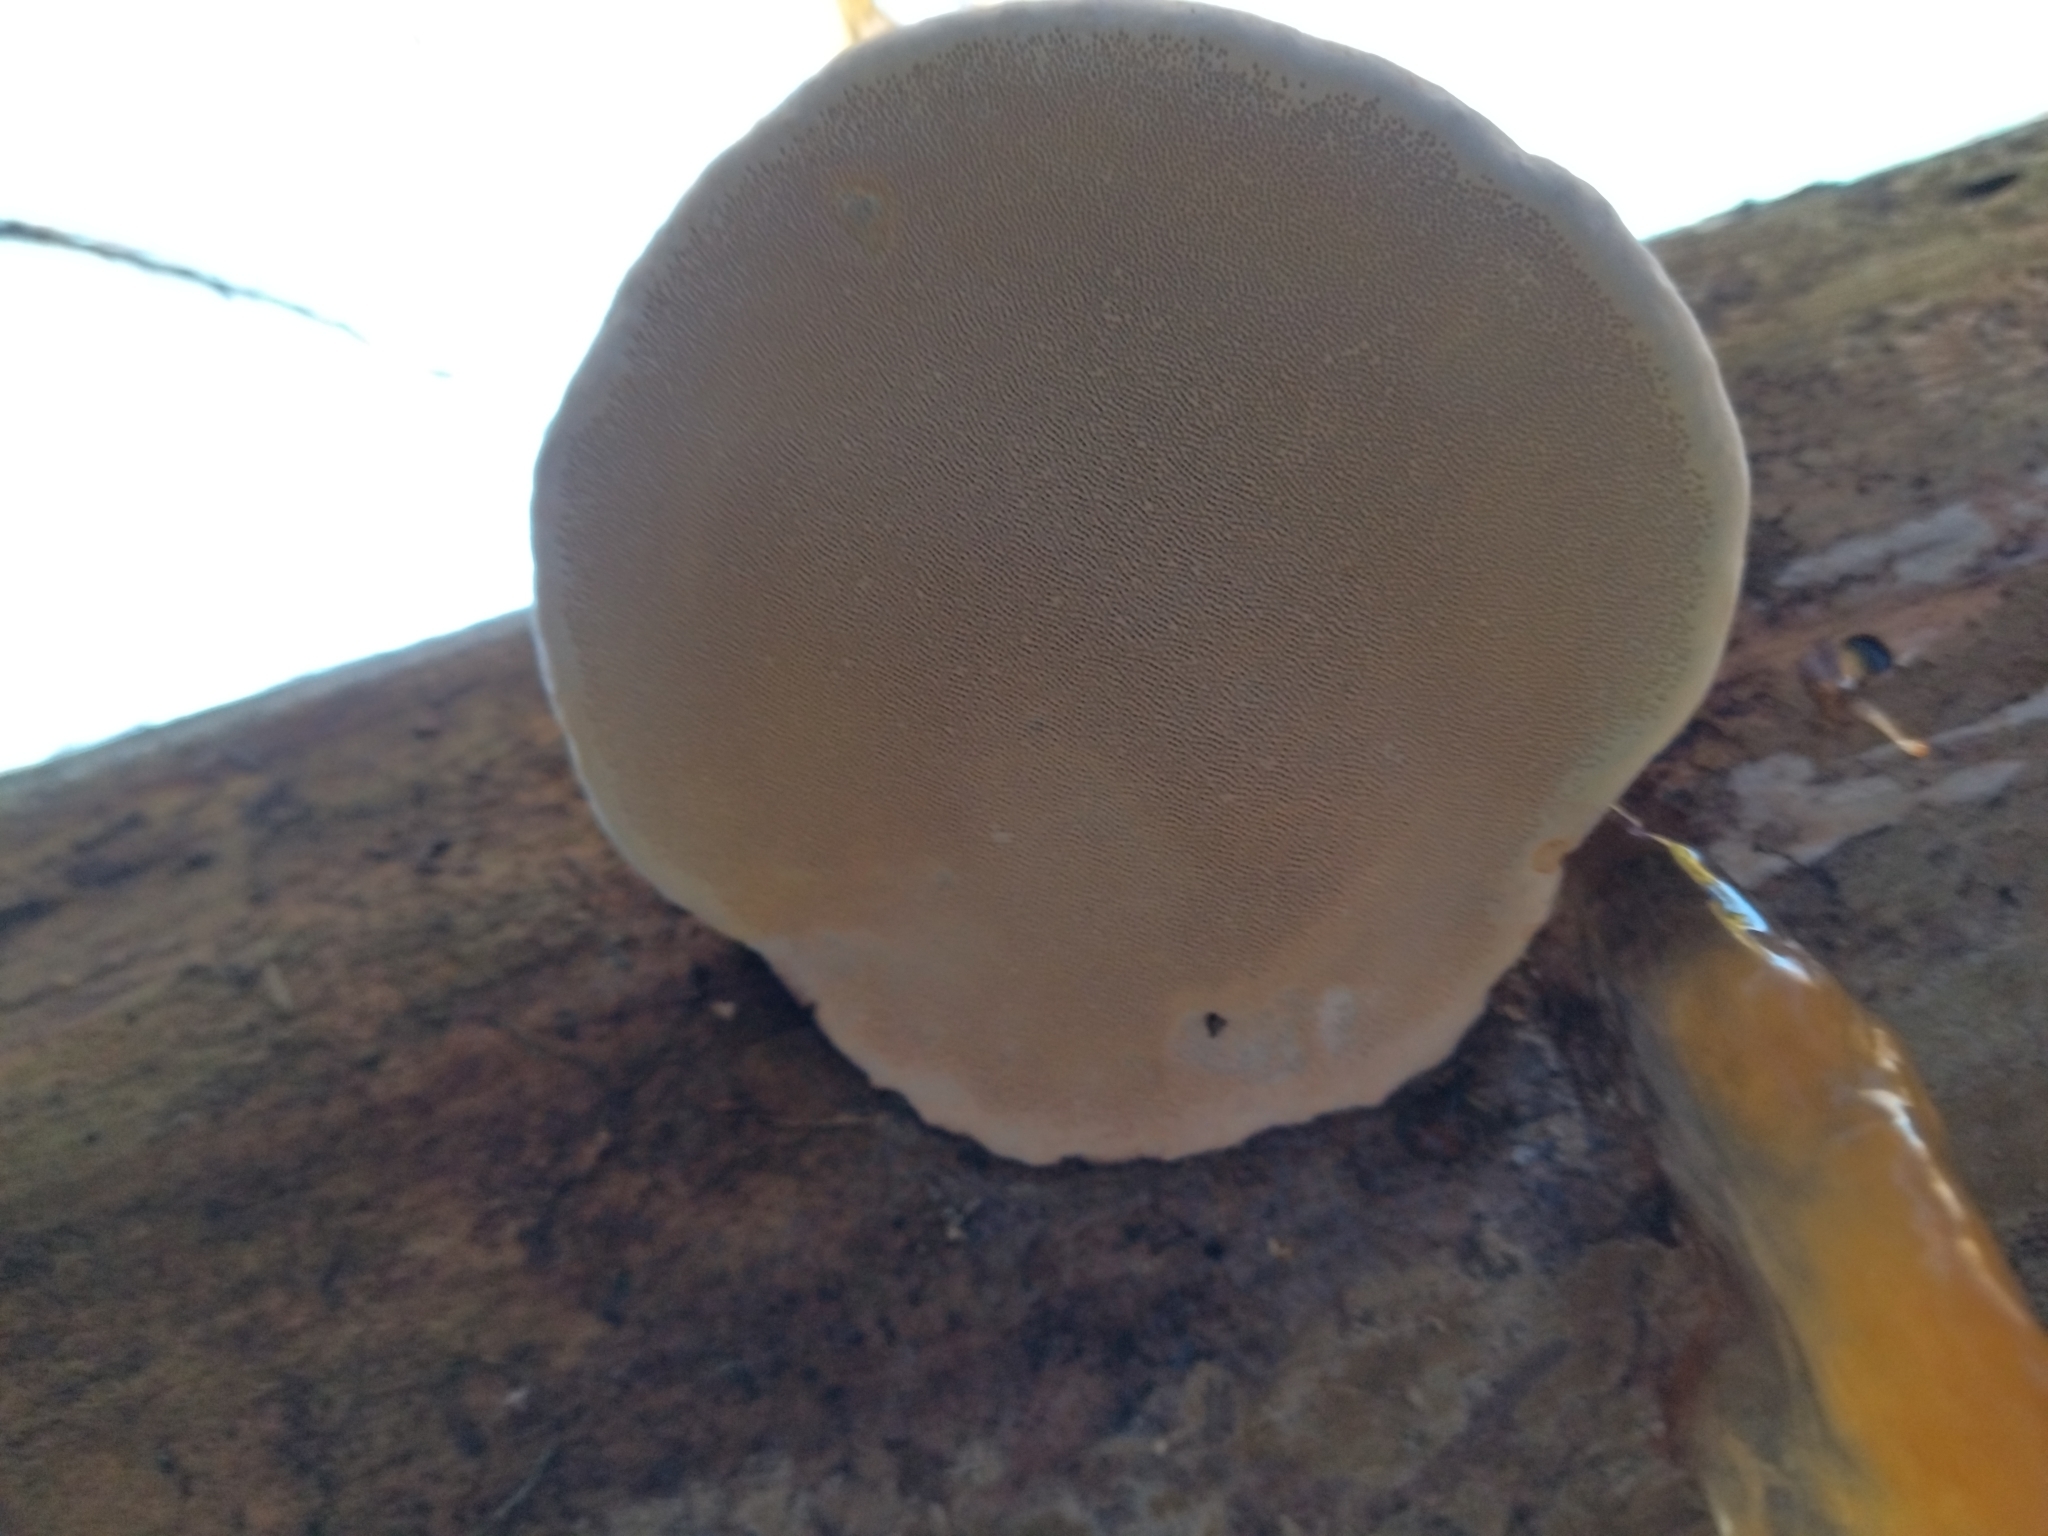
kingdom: Fungi
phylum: Basidiomycota
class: Agaricomycetes
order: Polyporales
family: Fomitopsidaceae
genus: Fomitopsis
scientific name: Fomitopsis pinicola
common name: Red-belted bracket
